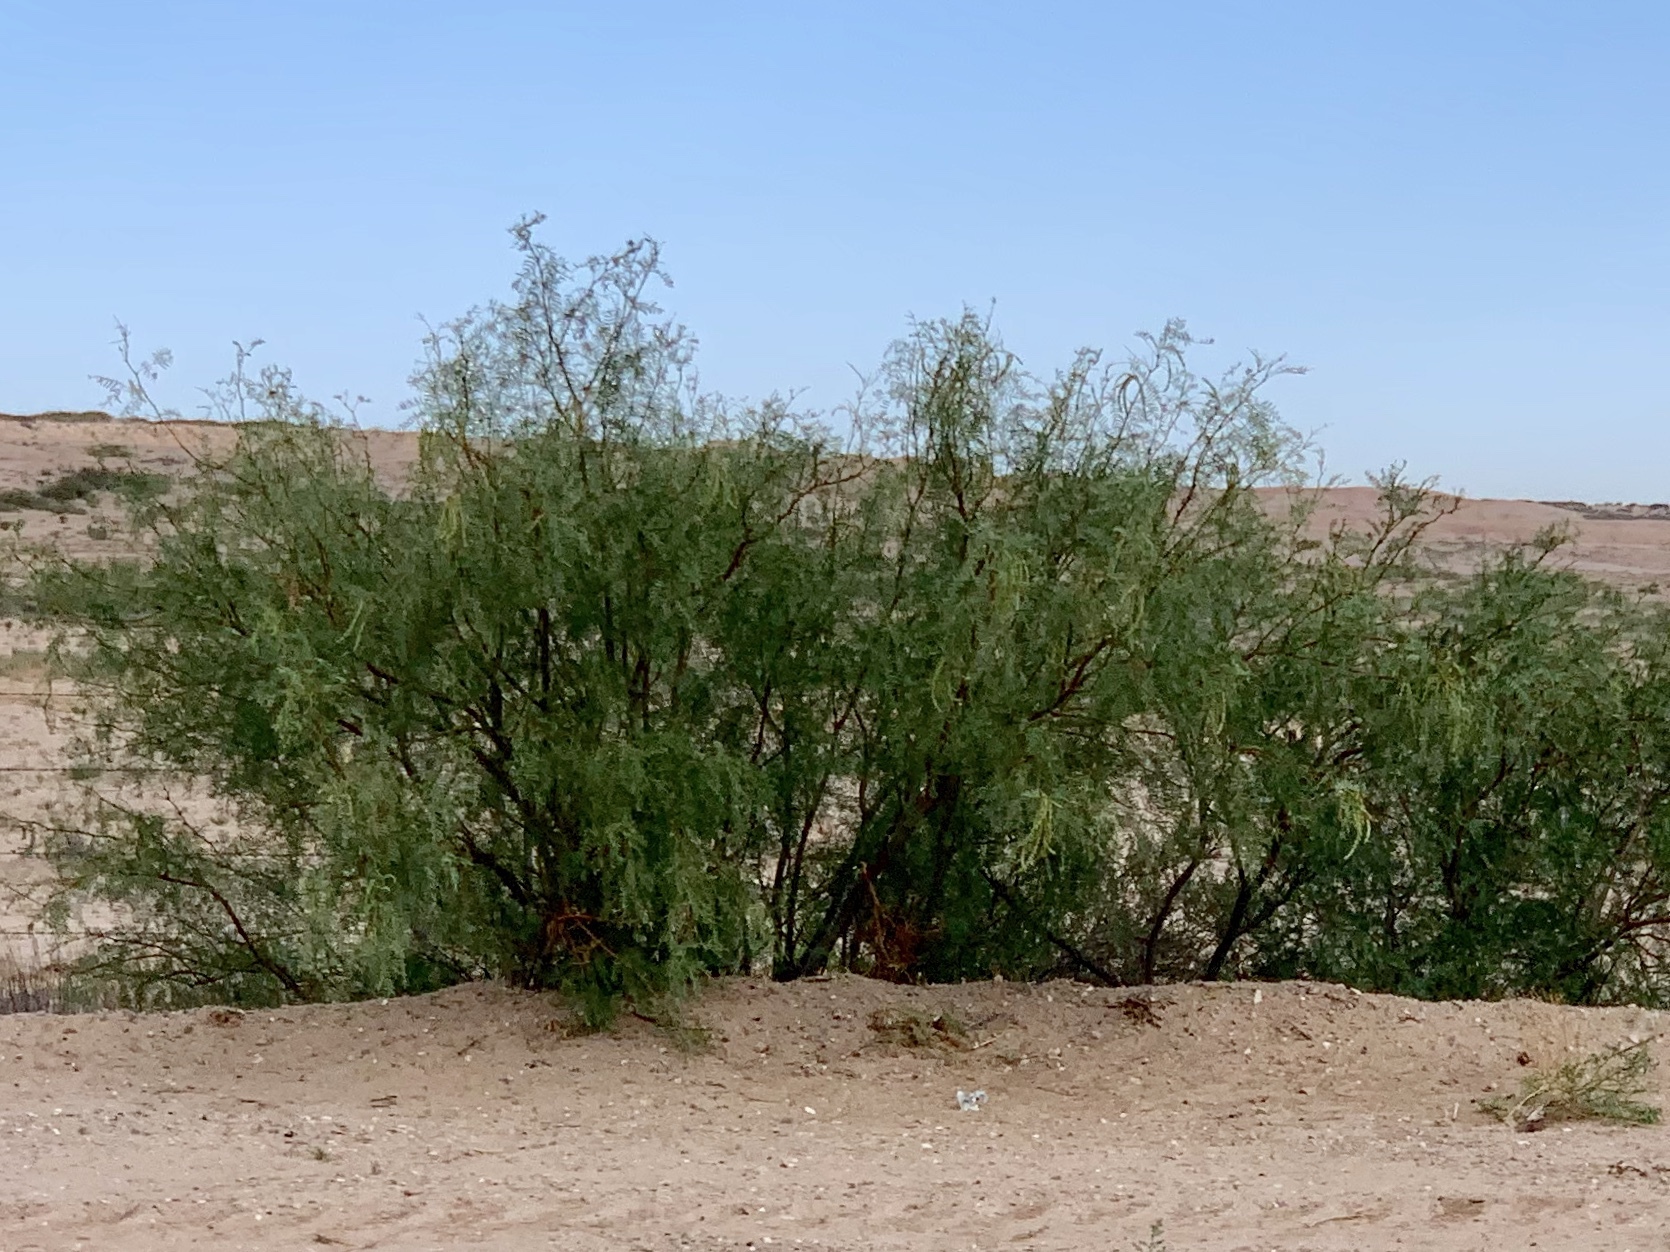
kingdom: Plantae
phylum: Tracheophyta
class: Magnoliopsida
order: Fabales
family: Fabaceae
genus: Prosopis
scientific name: Prosopis glandulosa
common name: Honey mesquite
